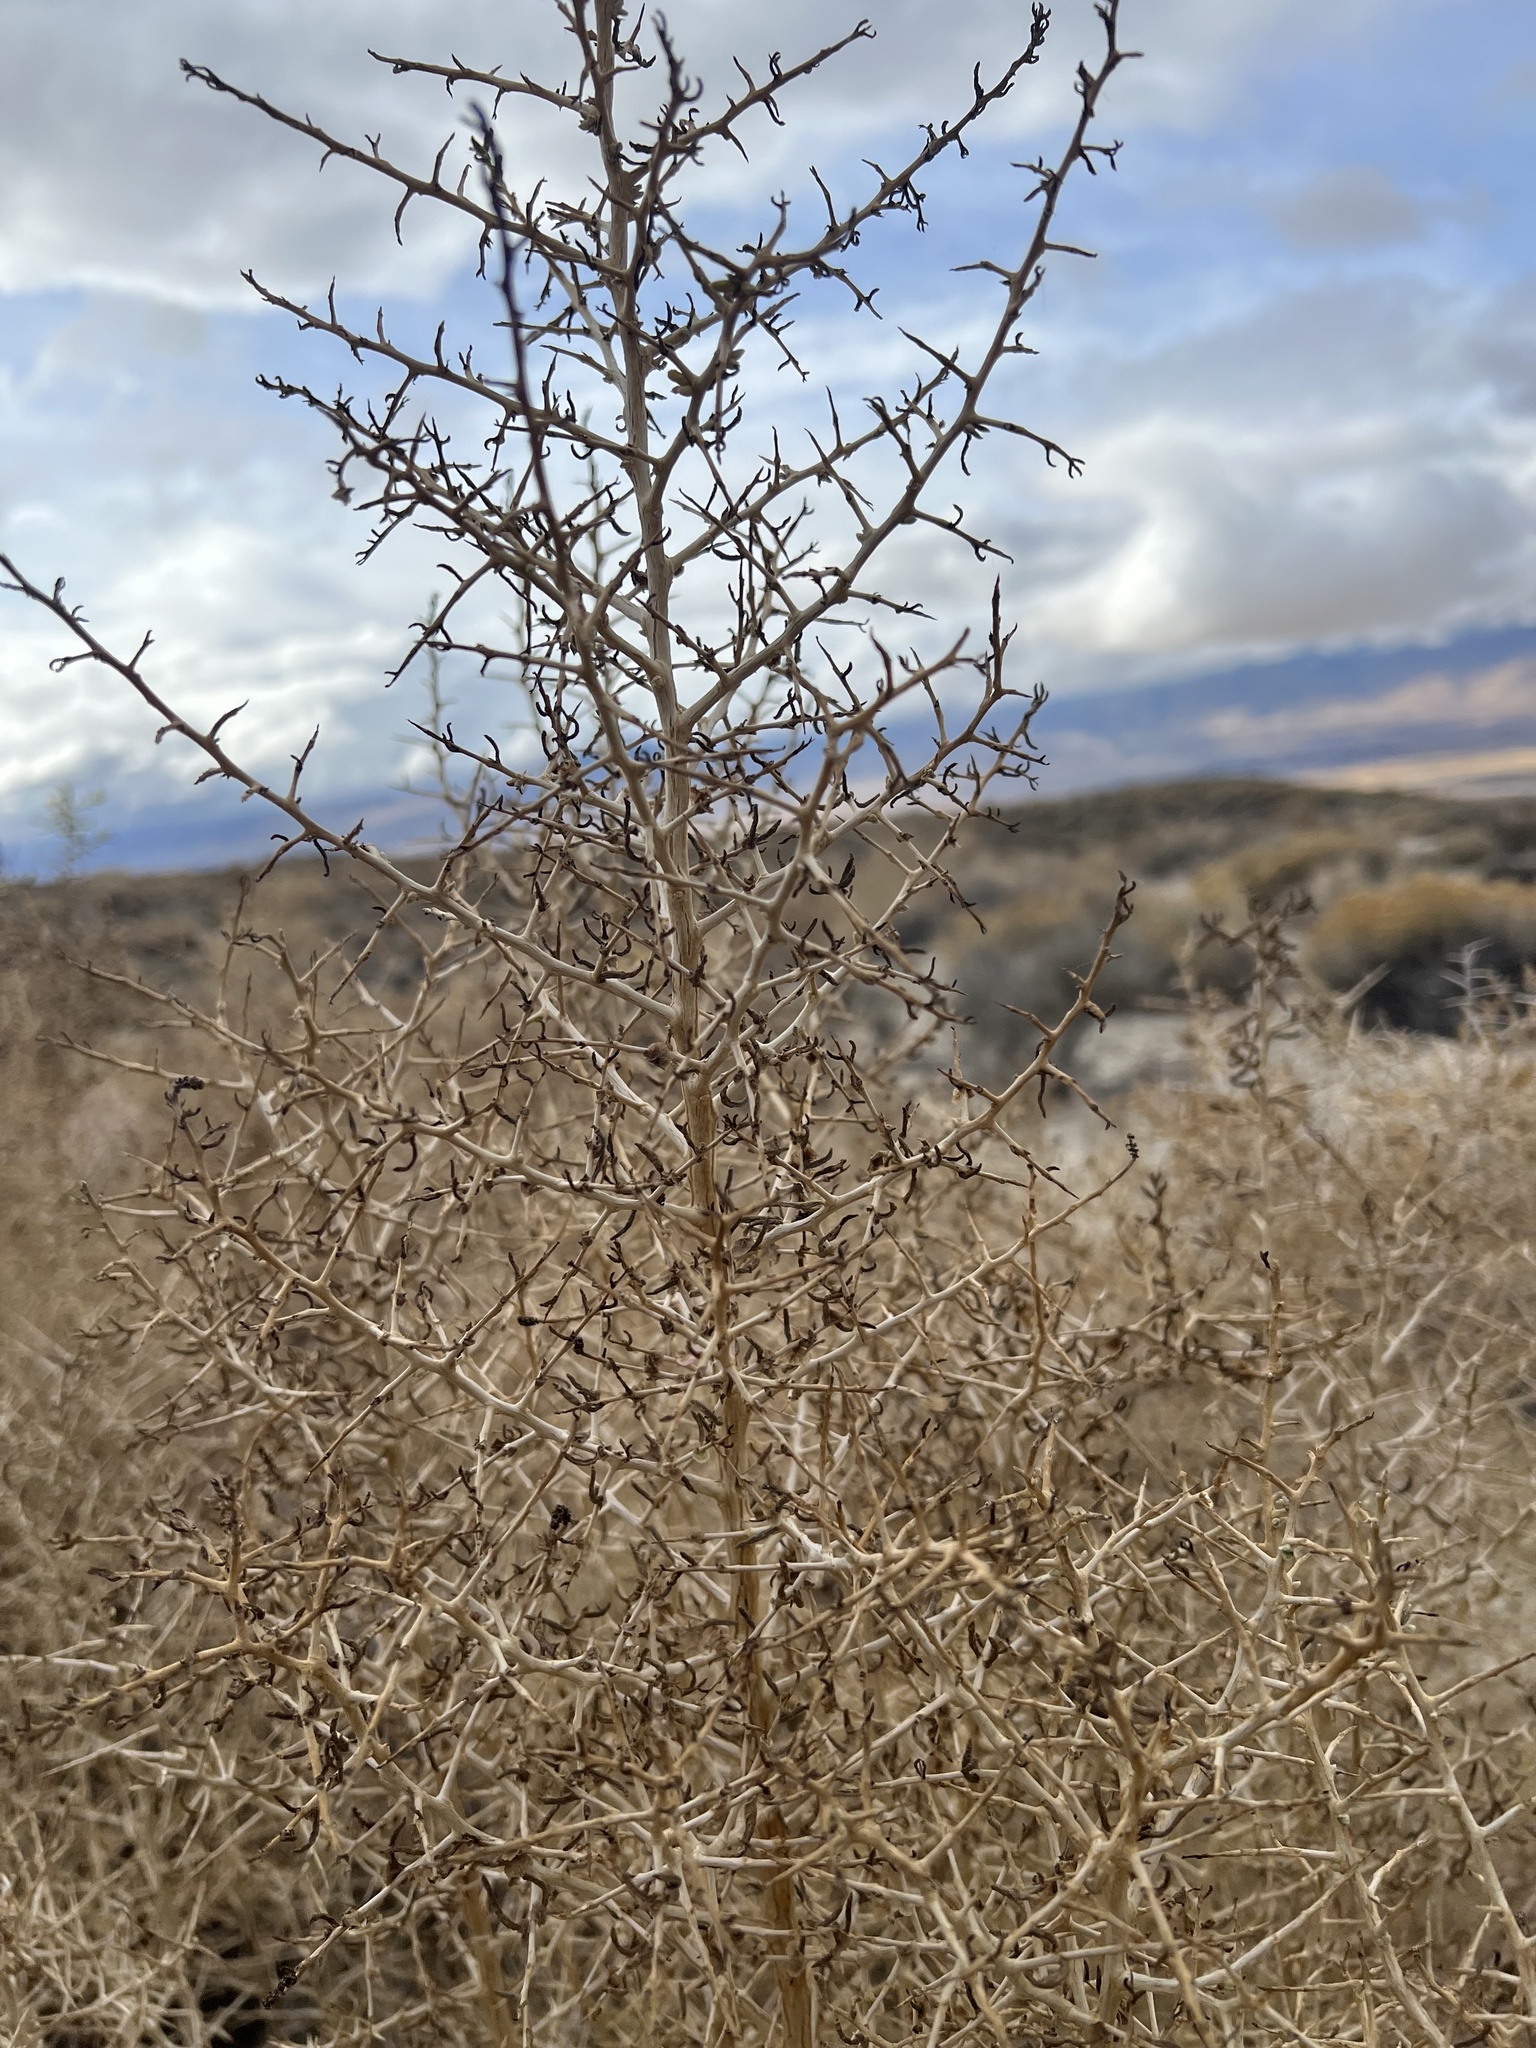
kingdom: Plantae
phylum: Tracheophyta
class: Magnoliopsida
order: Caryophyllales
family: Sarcobataceae
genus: Sarcobatus
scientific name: Sarcobatus vermiculatus
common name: Greasewood
